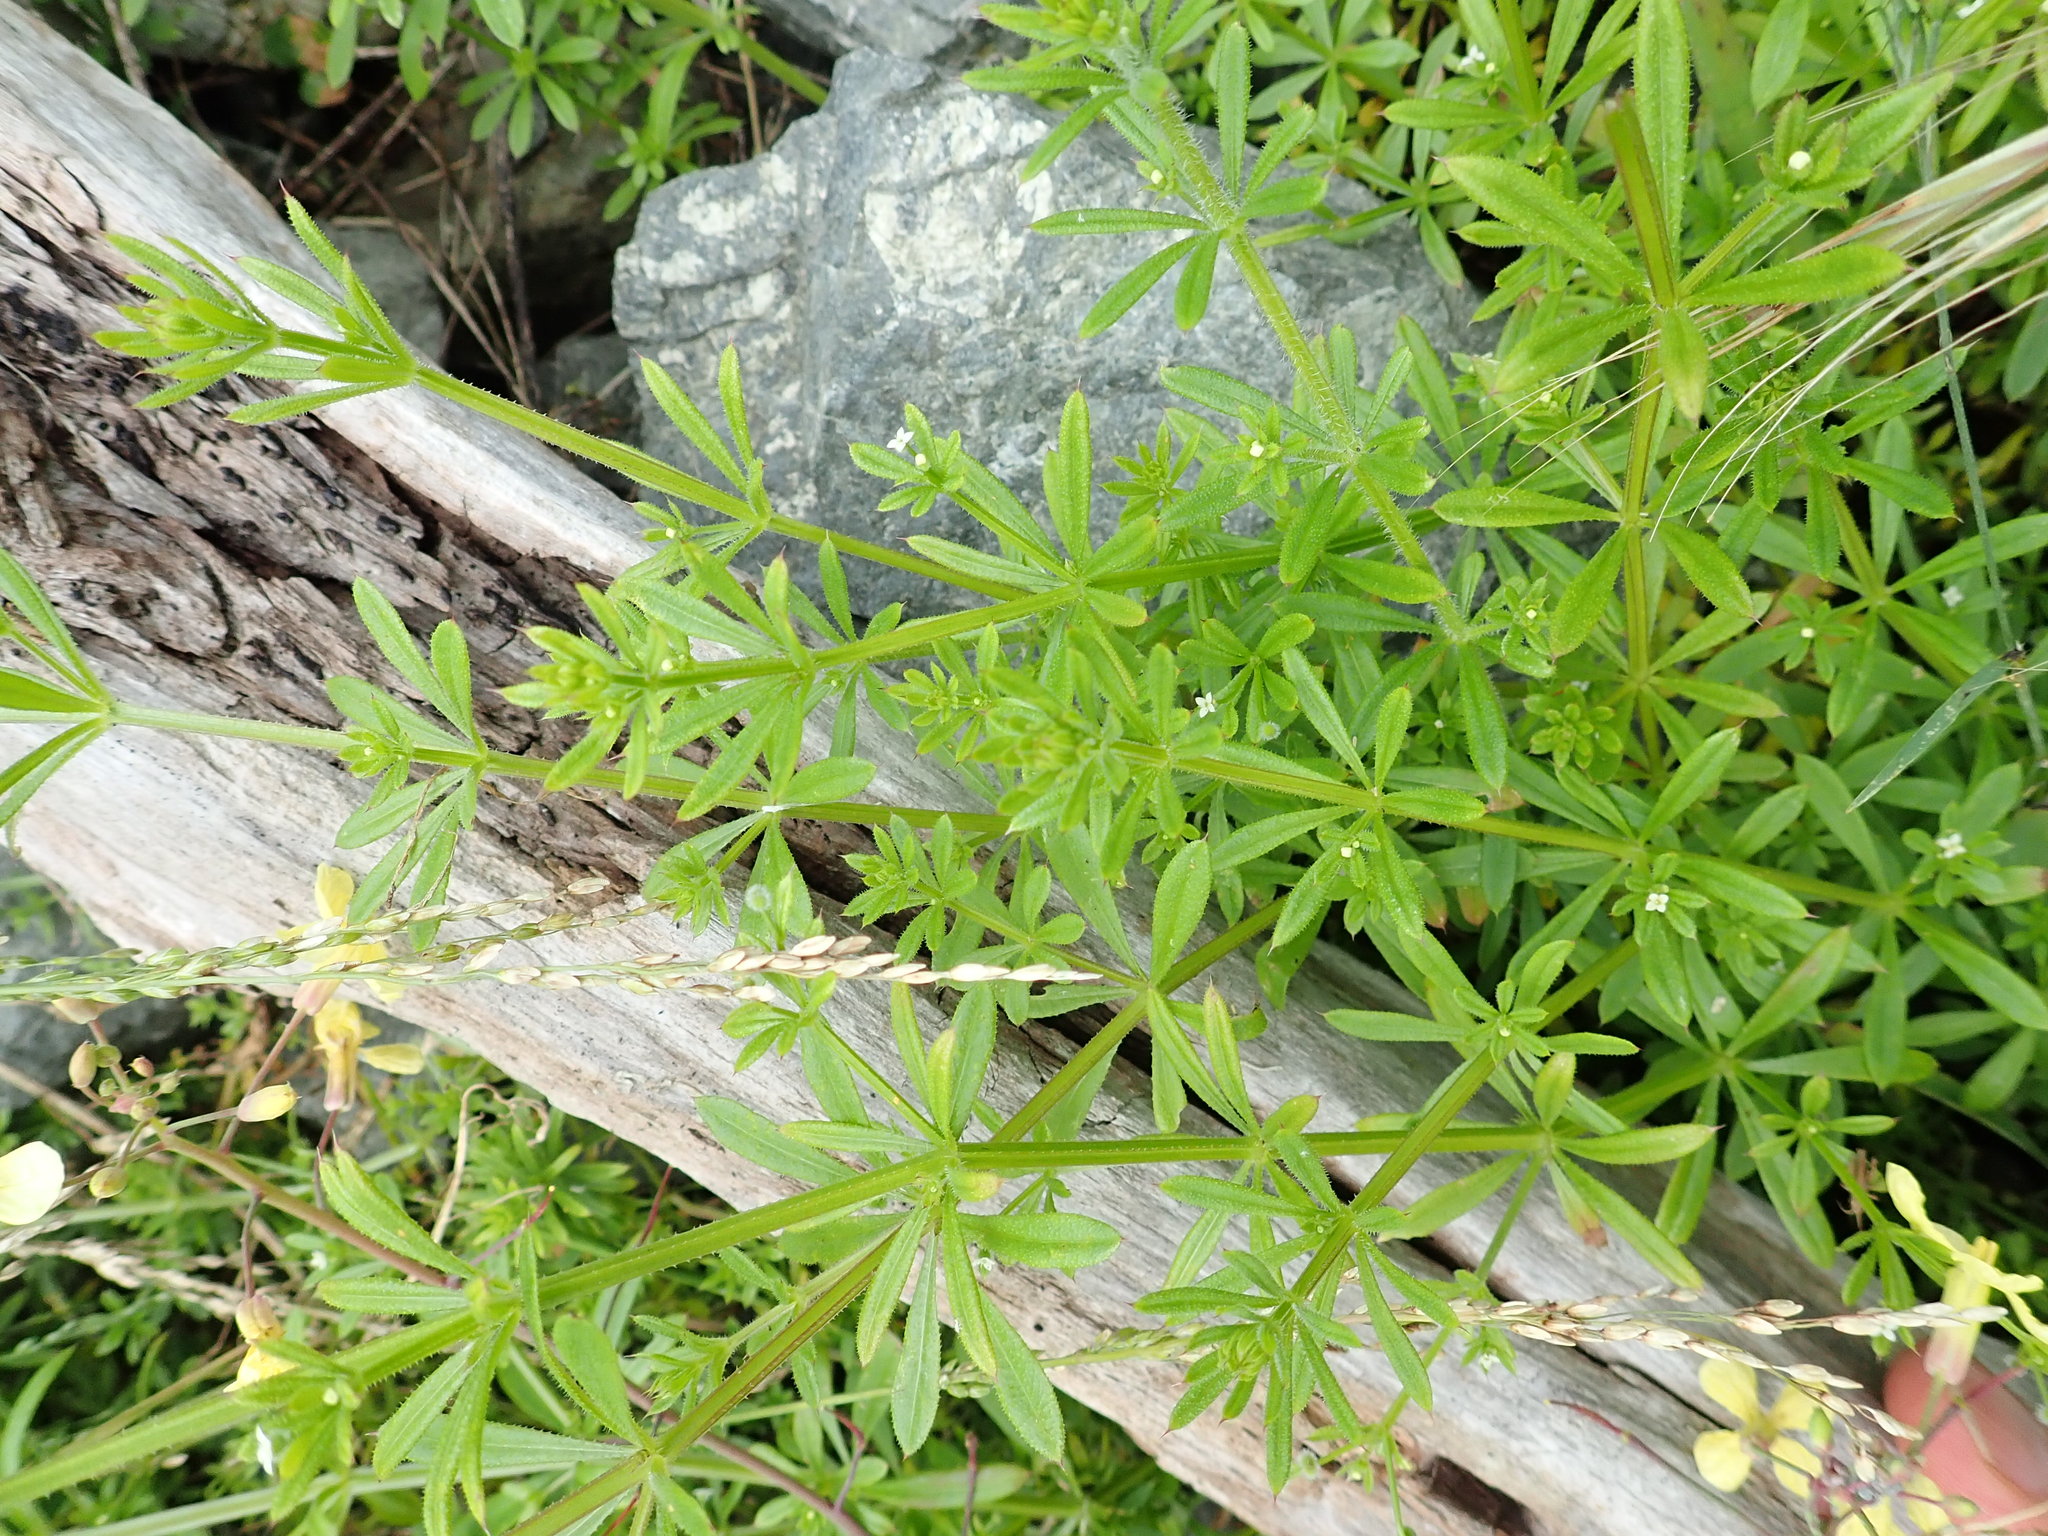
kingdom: Plantae
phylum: Tracheophyta
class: Magnoliopsida
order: Gentianales
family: Rubiaceae
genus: Galium
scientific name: Galium aparine
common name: Cleavers
